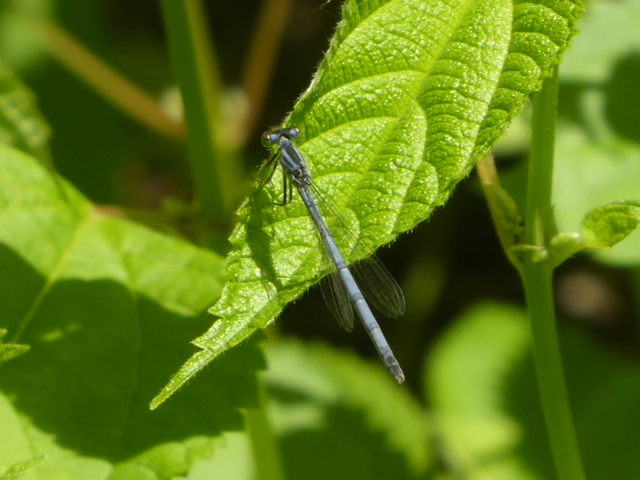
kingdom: Animalia
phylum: Arthropoda
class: Insecta
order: Odonata
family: Coenagrionidae
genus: Ischnura
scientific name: Ischnura verticalis
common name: Eastern forktail
